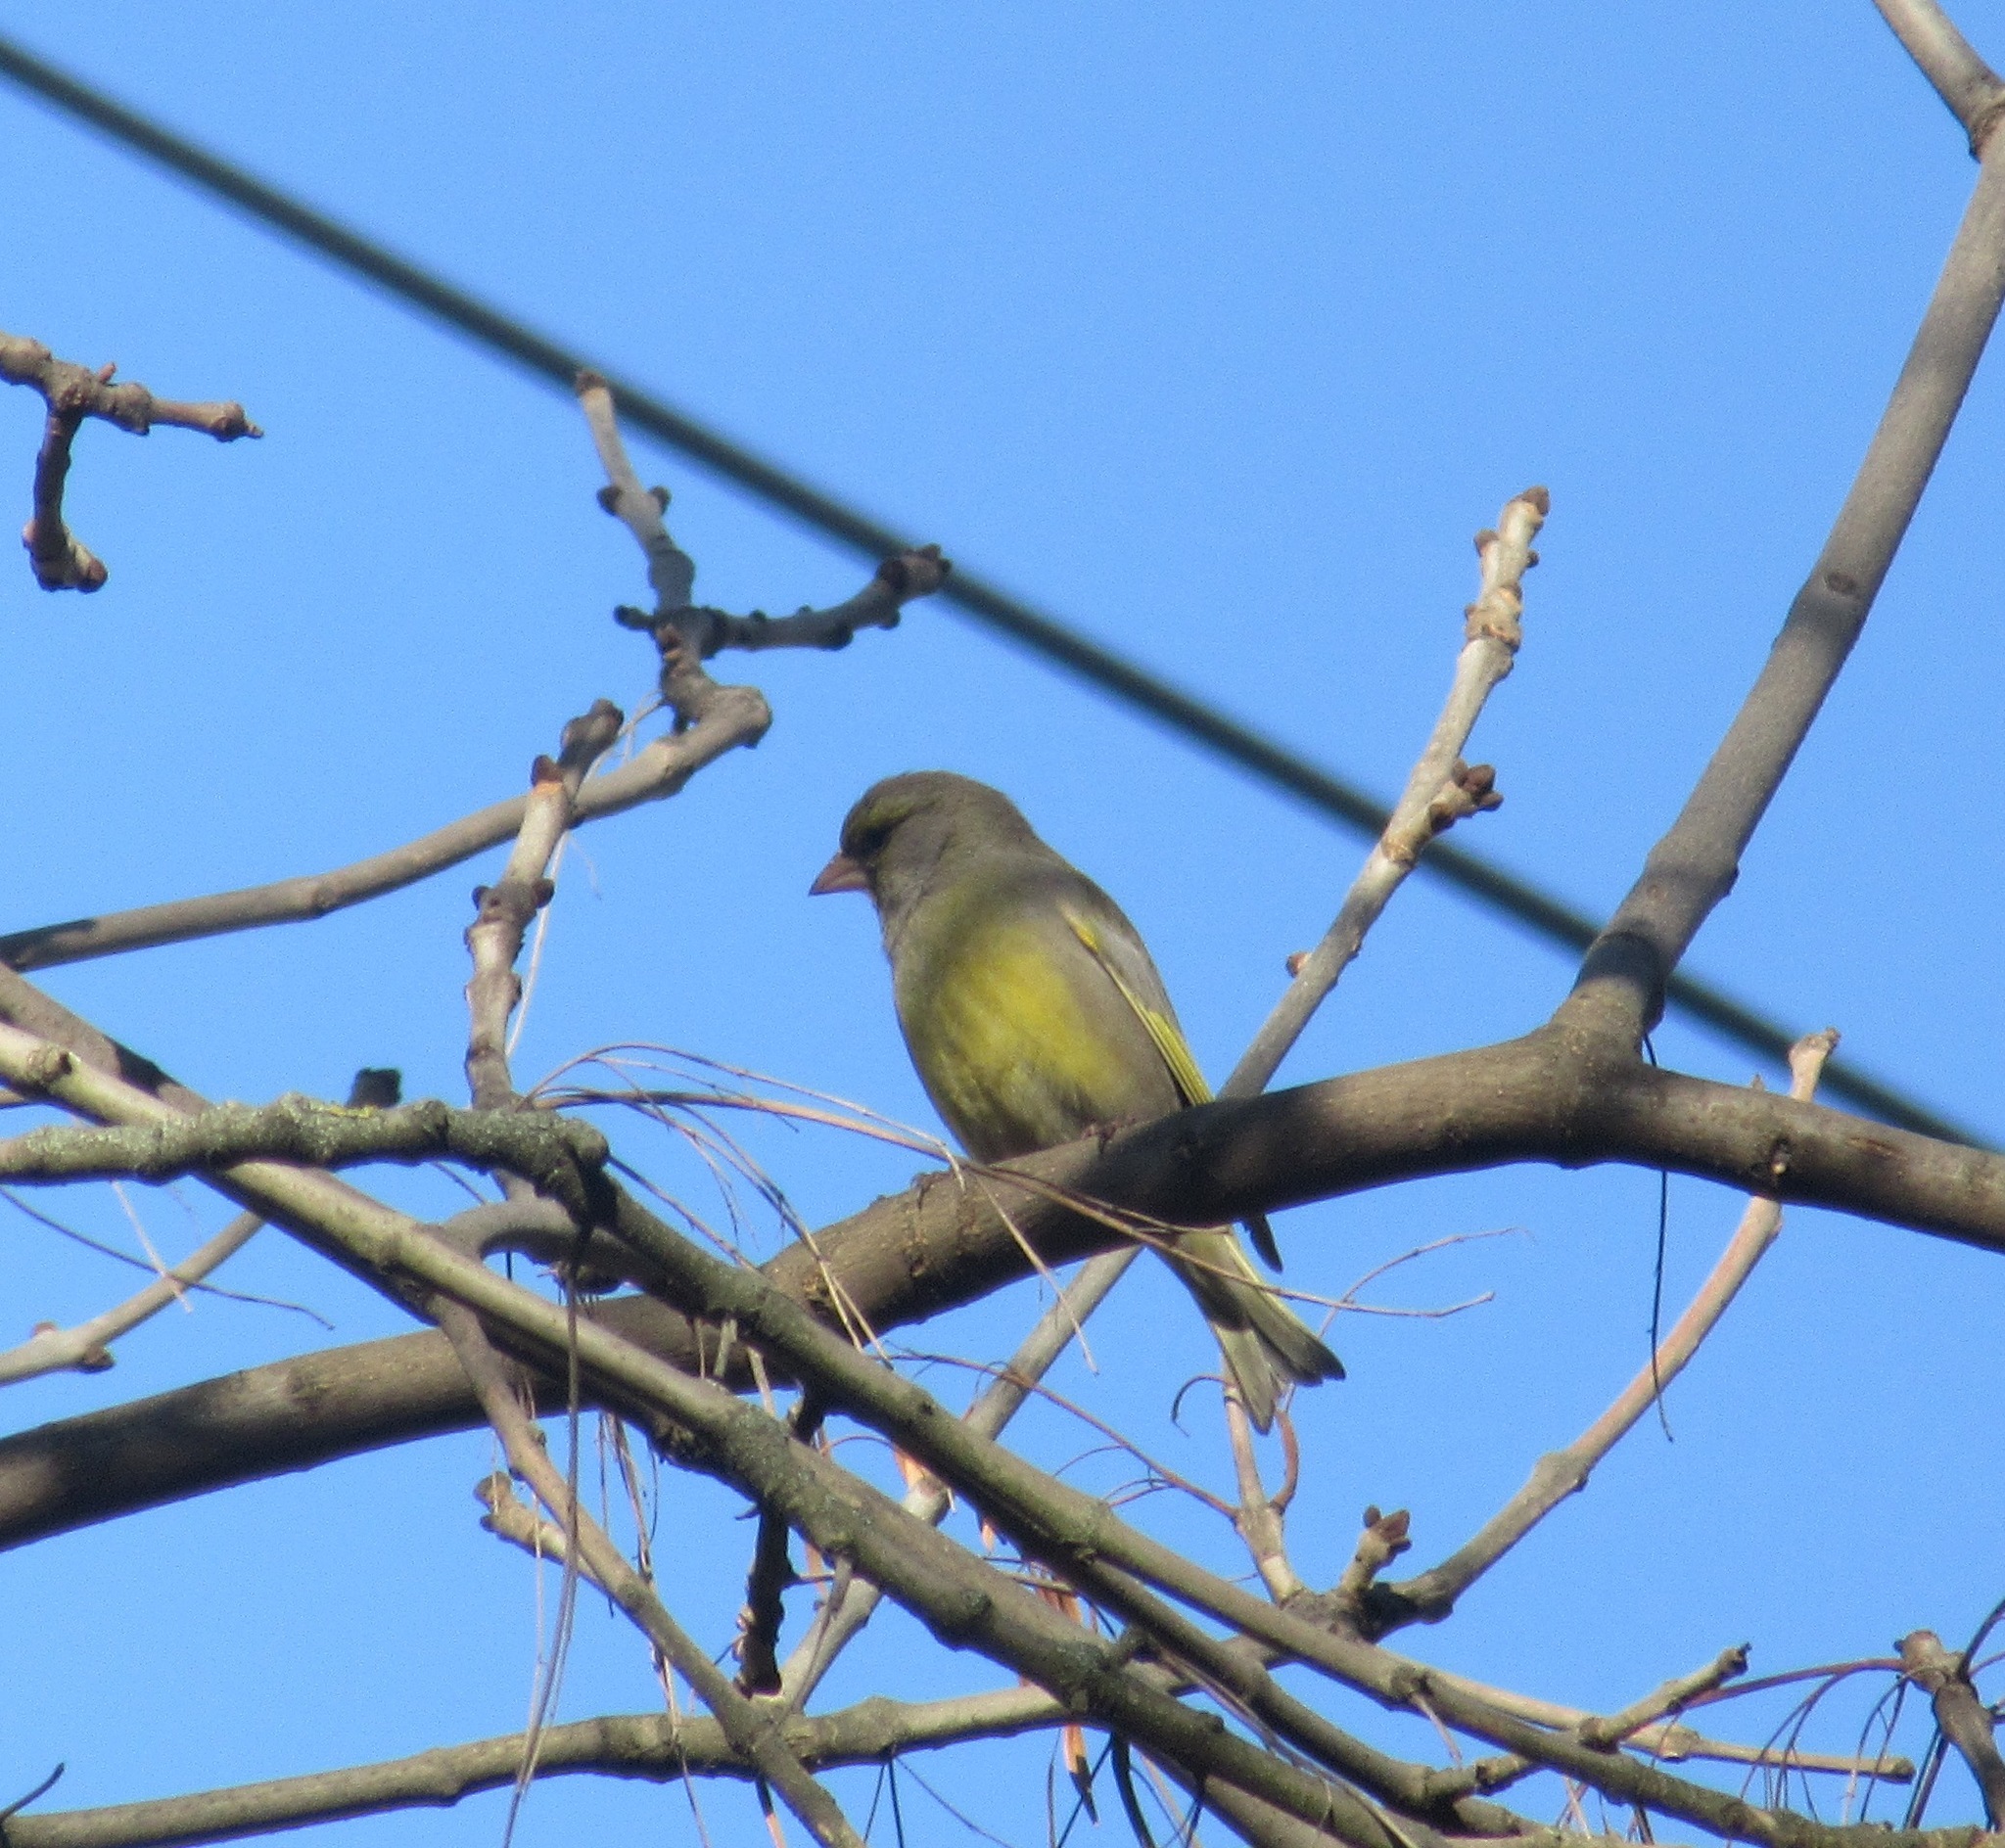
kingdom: Plantae
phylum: Tracheophyta
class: Liliopsida
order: Poales
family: Poaceae
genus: Chloris
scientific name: Chloris chloris
